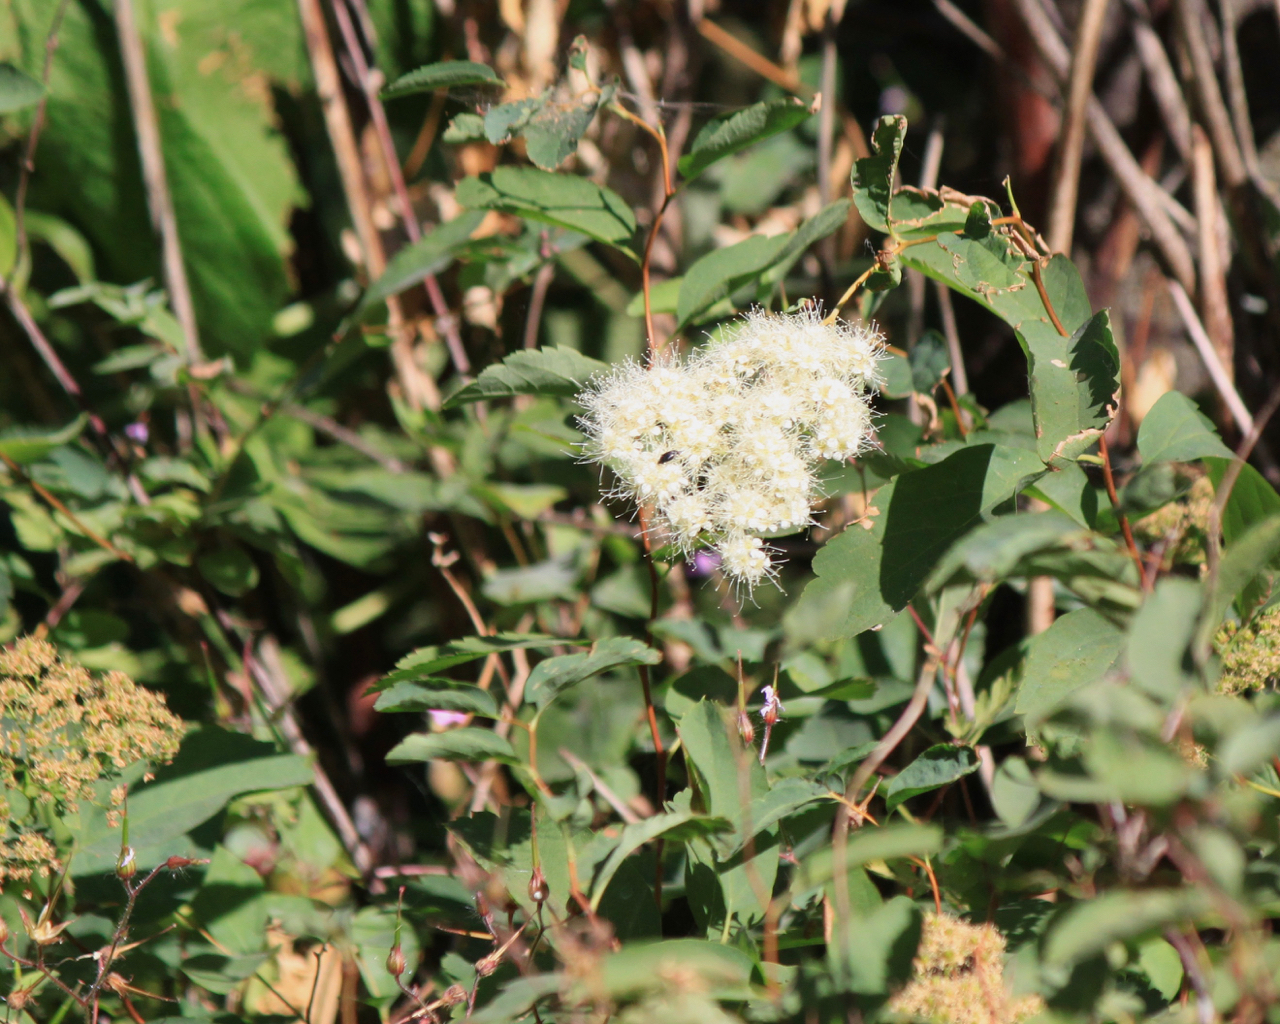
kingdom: Plantae
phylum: Tracheophyta
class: Magnoliopsida
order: Rosales
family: Rosaceae
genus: Spiraea
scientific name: Spiraea lucida
